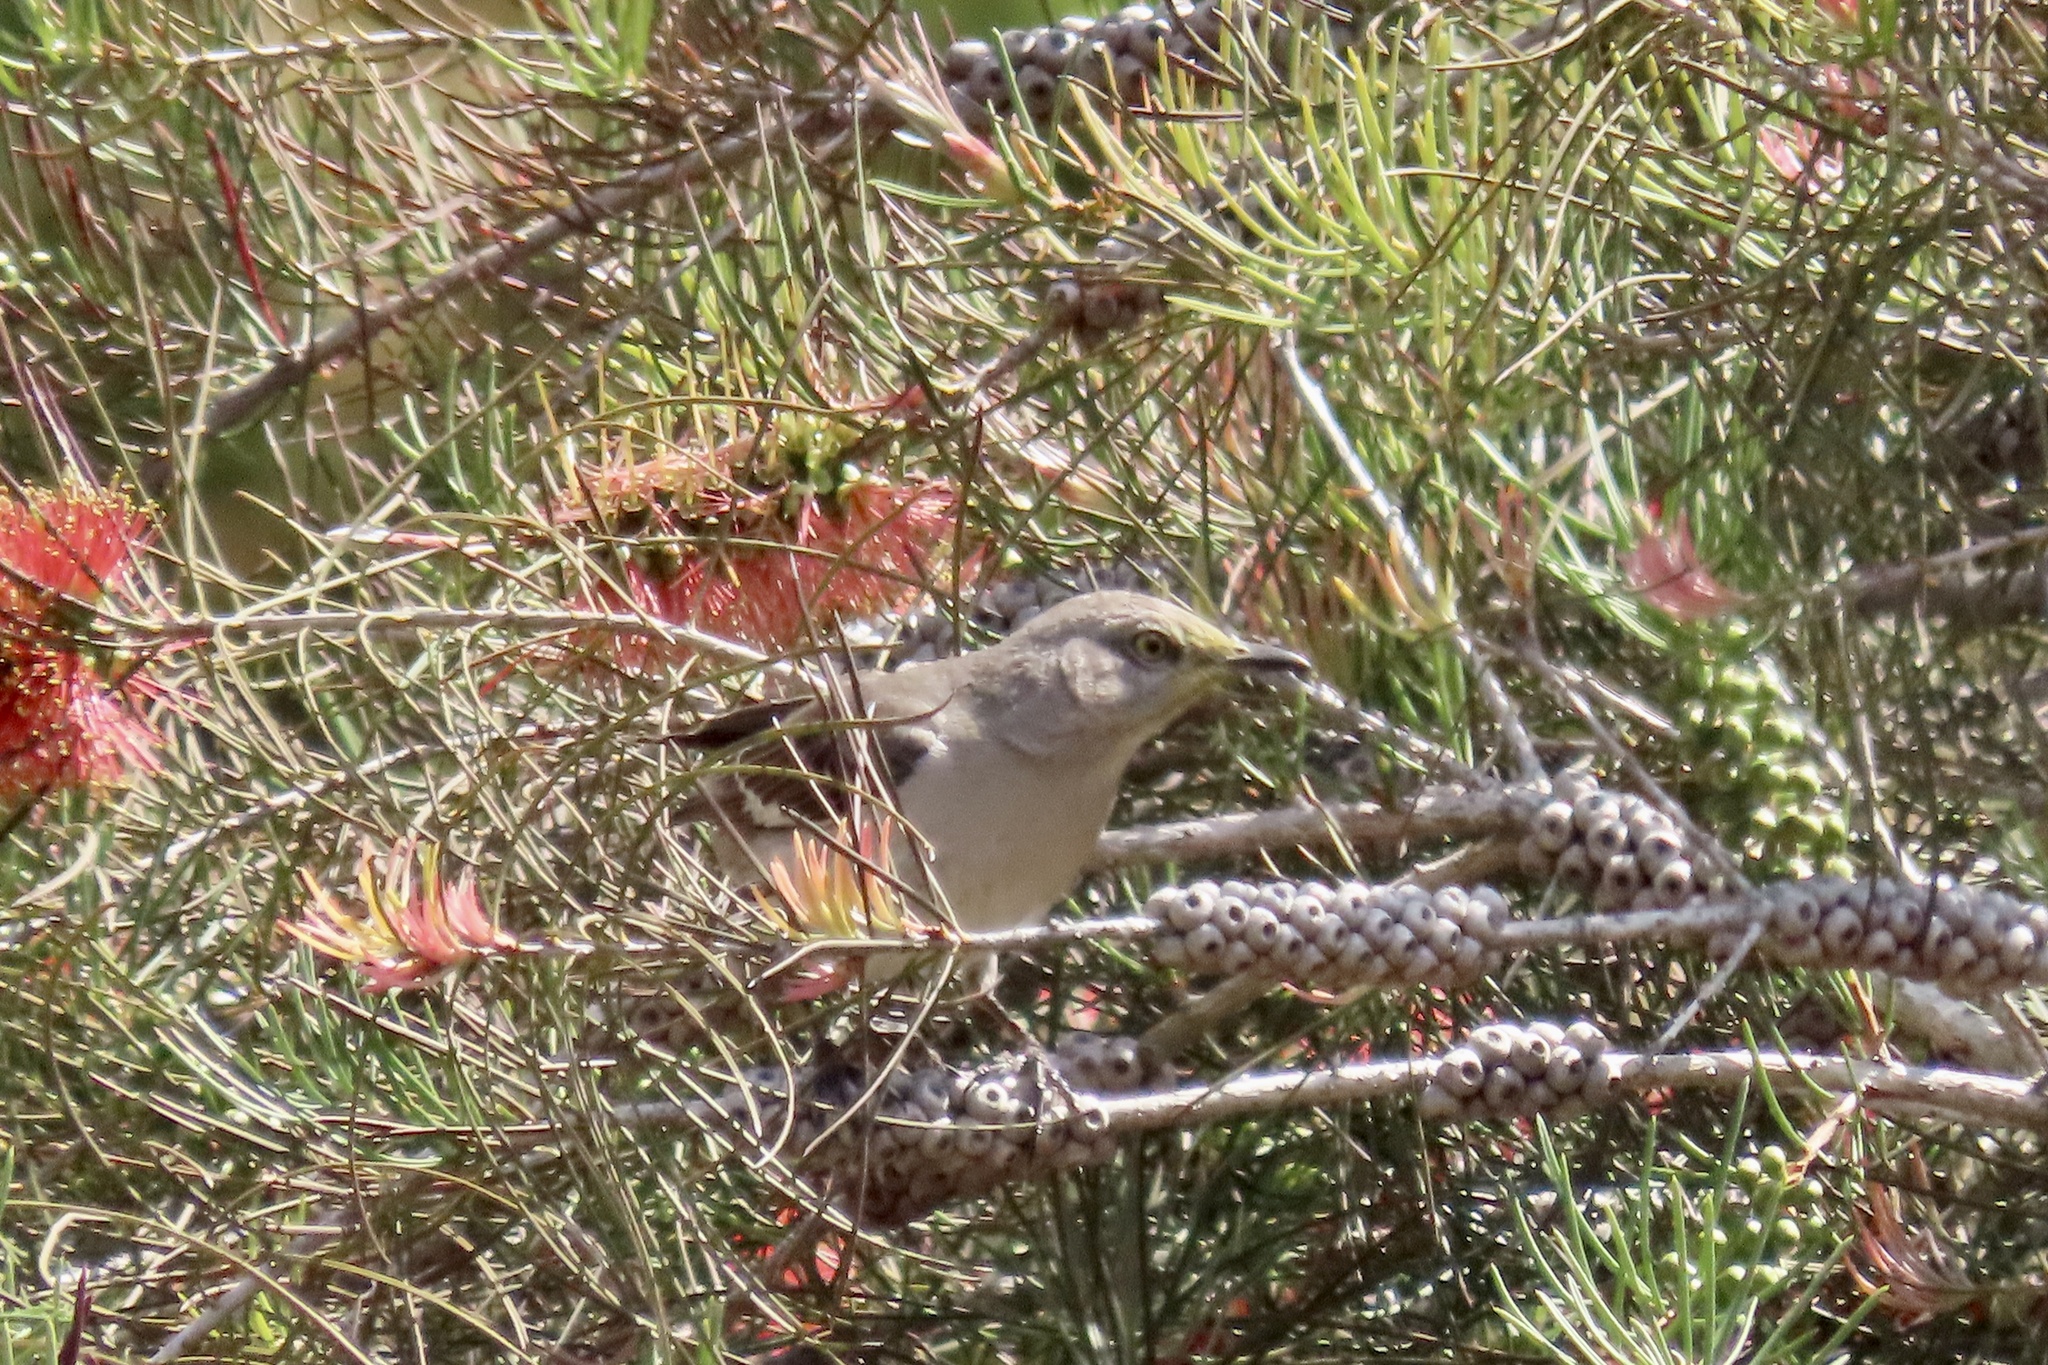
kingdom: Animalia
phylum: Chordata
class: Aves
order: Passeriformes
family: Mimidae
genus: Mimus
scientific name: Mimus polyglottos
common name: Northern mockingbird
